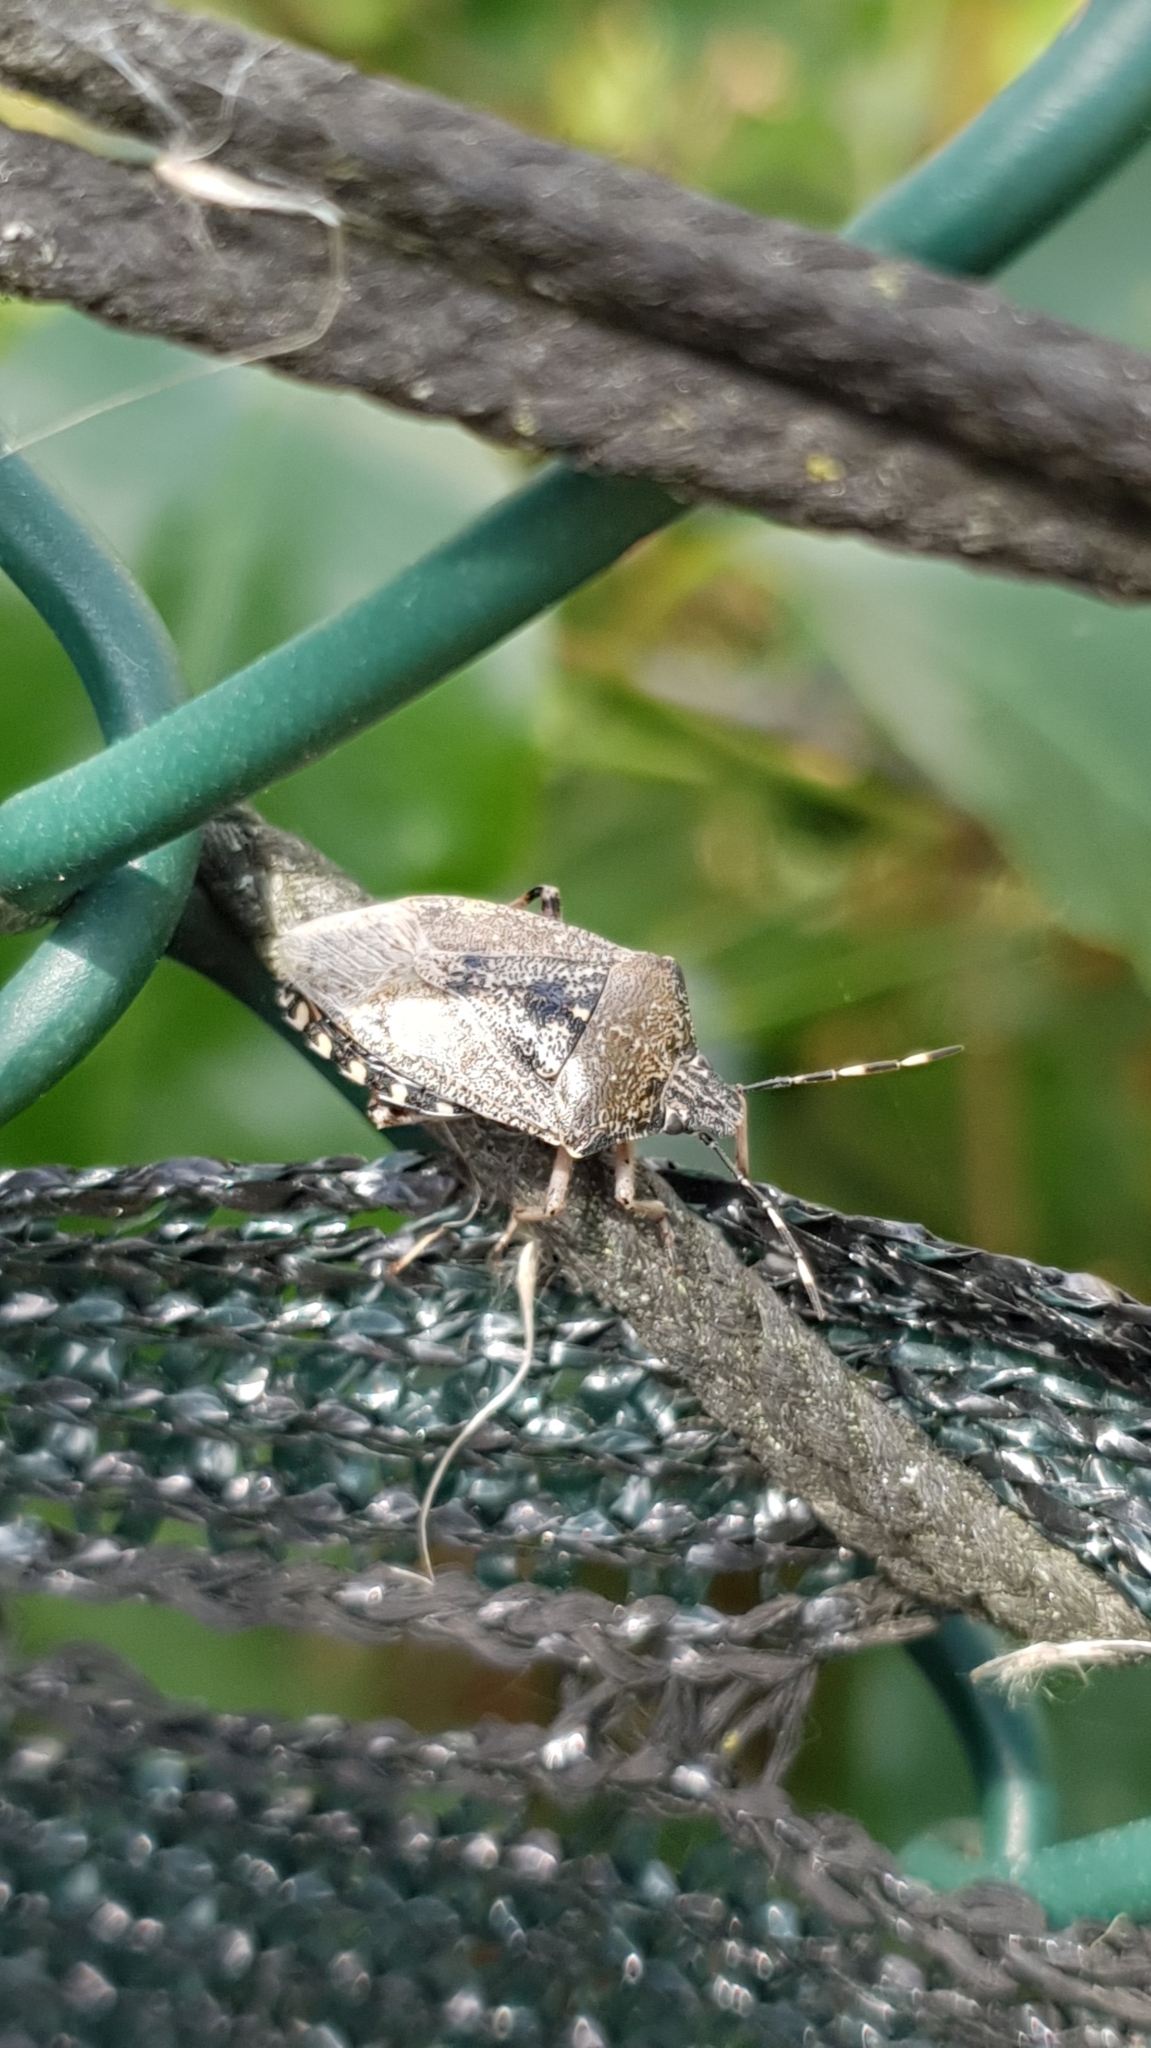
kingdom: Animalia
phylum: Arthropoda
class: Insecta
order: Hemiptera
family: Pentatomidae
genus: Rhaphigaster
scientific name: Rhaphigaster nebulosa
